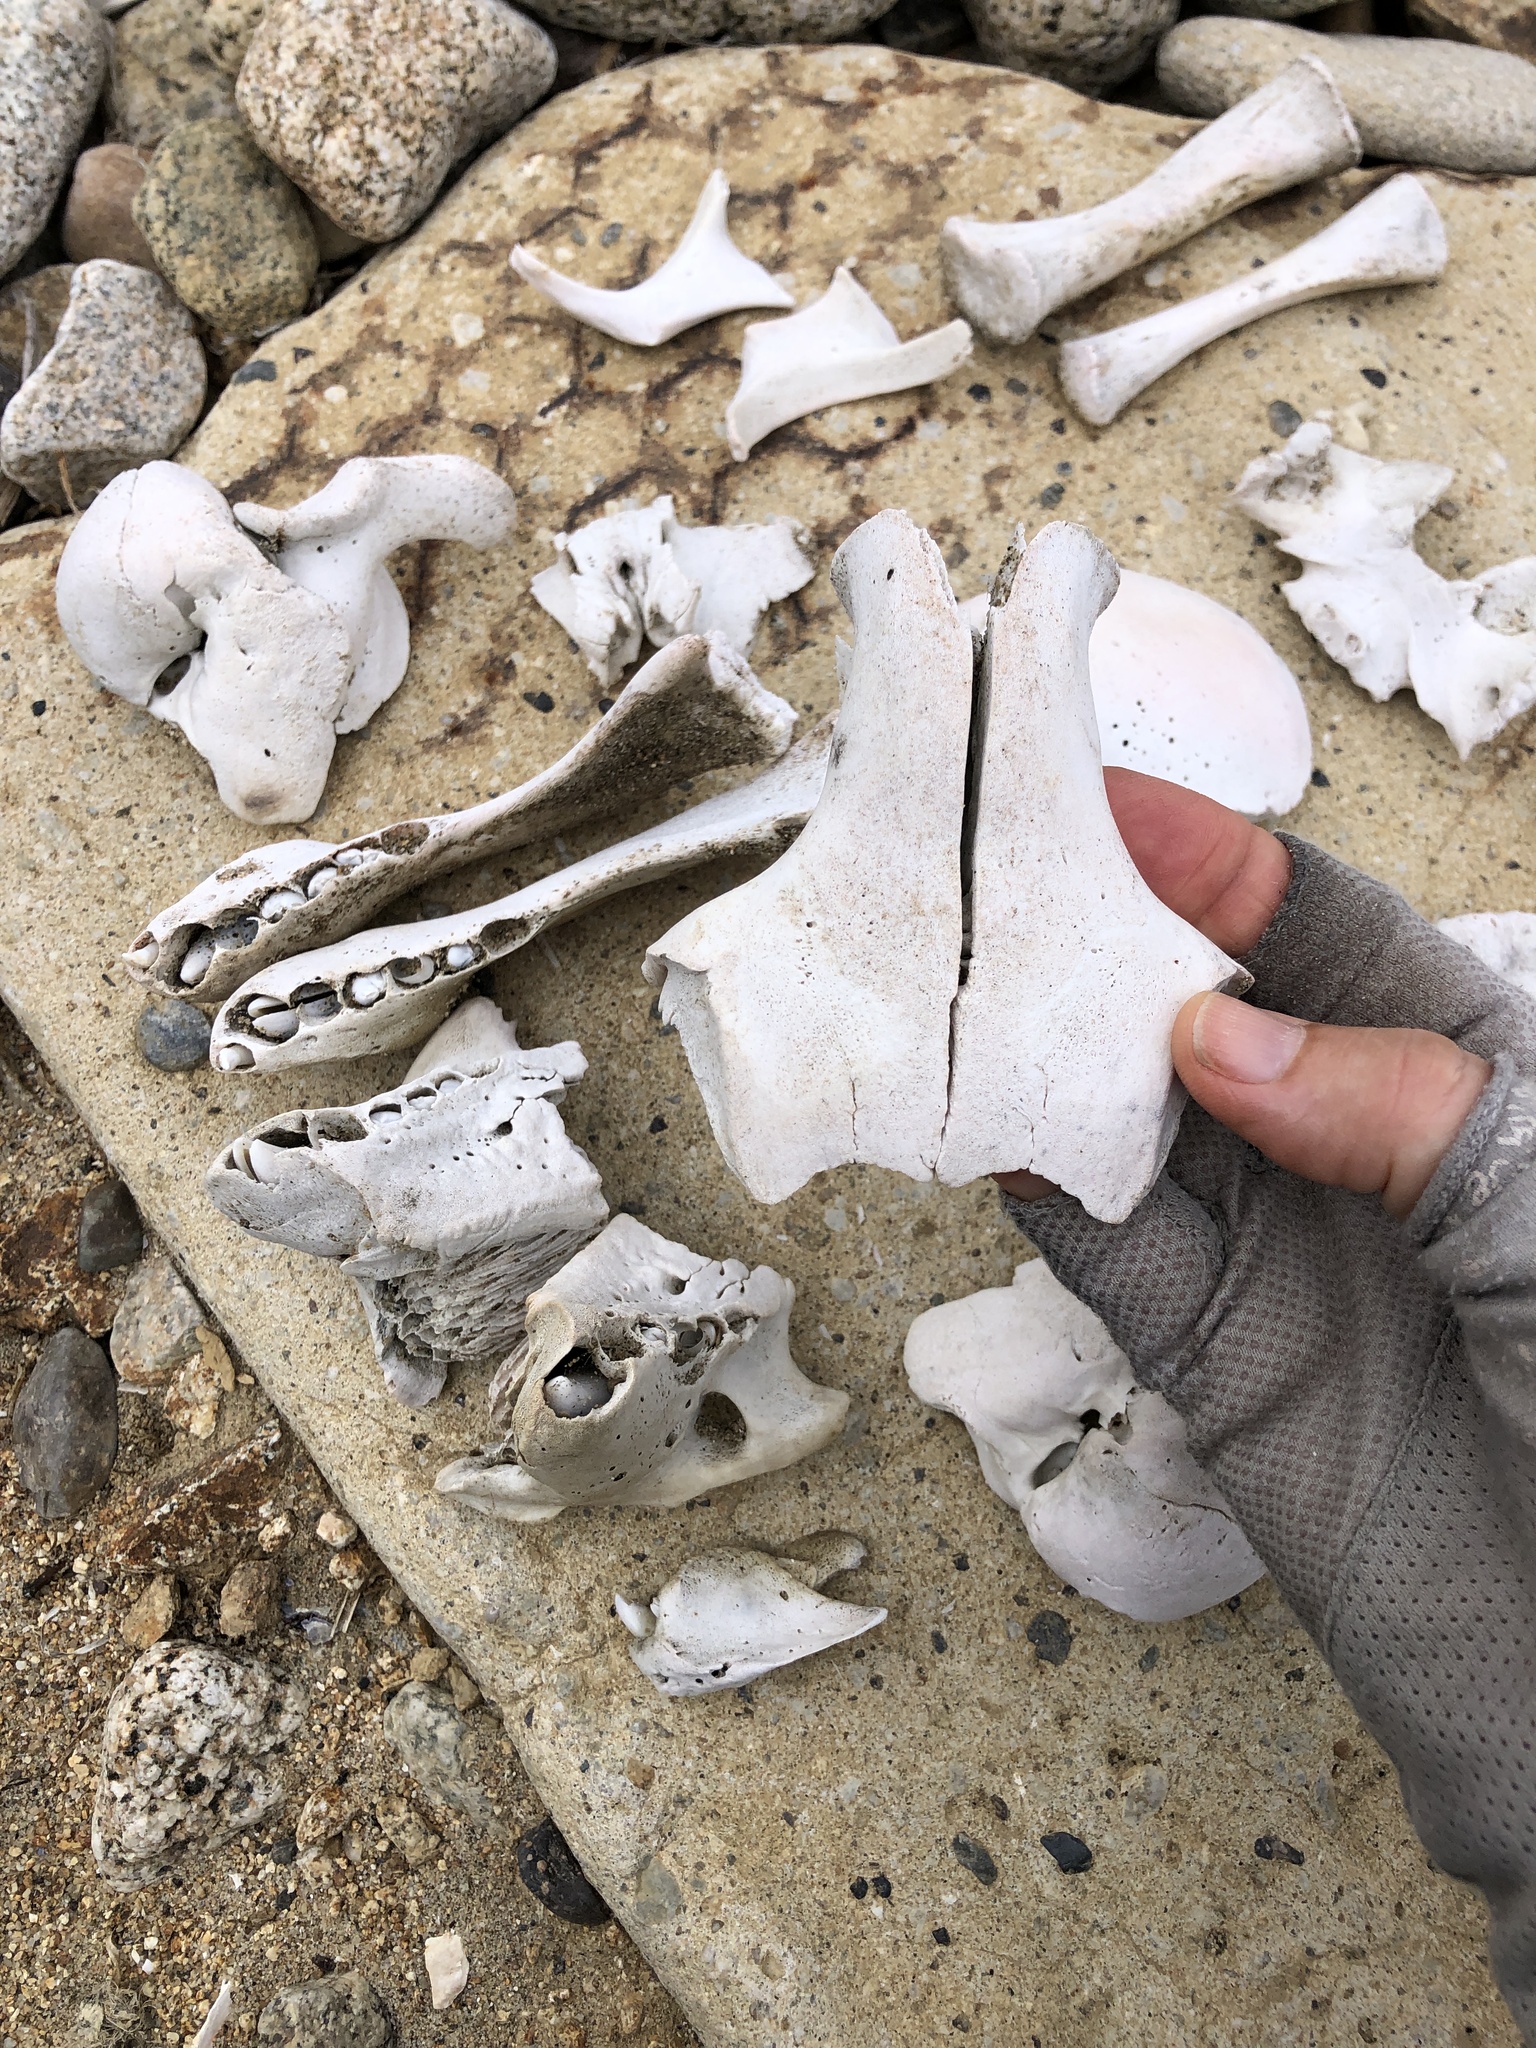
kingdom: Animalia
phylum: Chordata
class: Mammalia
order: Carnivora
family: Phocidae
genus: Mirounga
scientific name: Mirounga angustirostris
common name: Northern elephant seal
